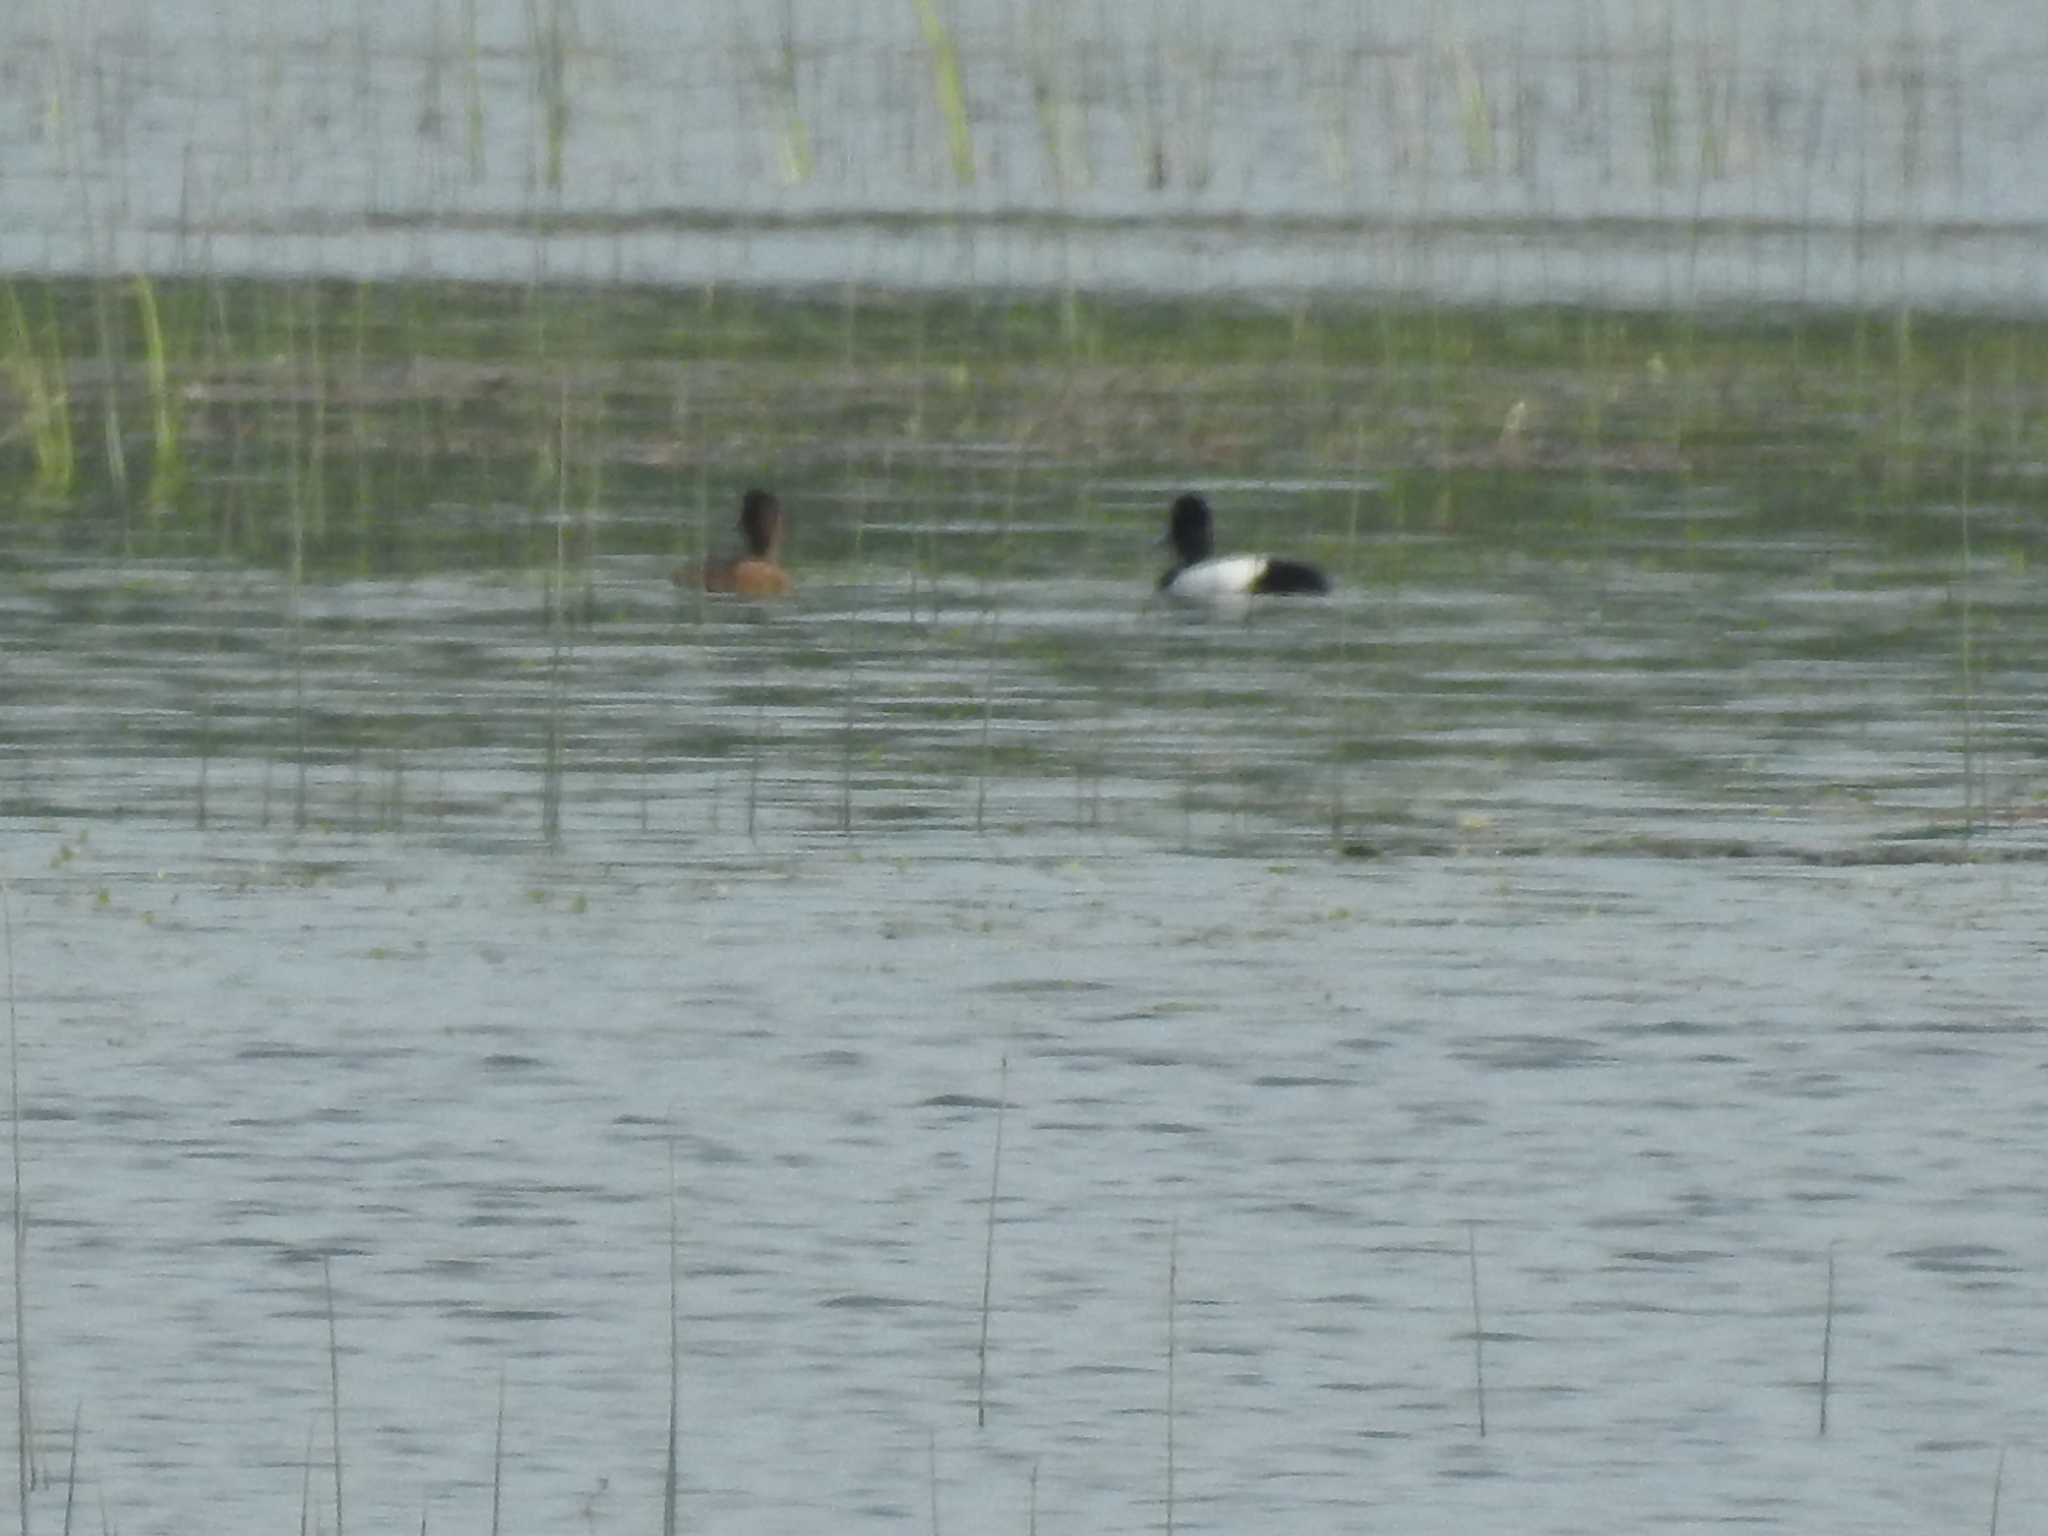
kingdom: Animalia
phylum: Chordata
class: Aves
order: Anseriformes
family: Anatidae
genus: Aythya
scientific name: Aythya marila
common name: Greater scaup
